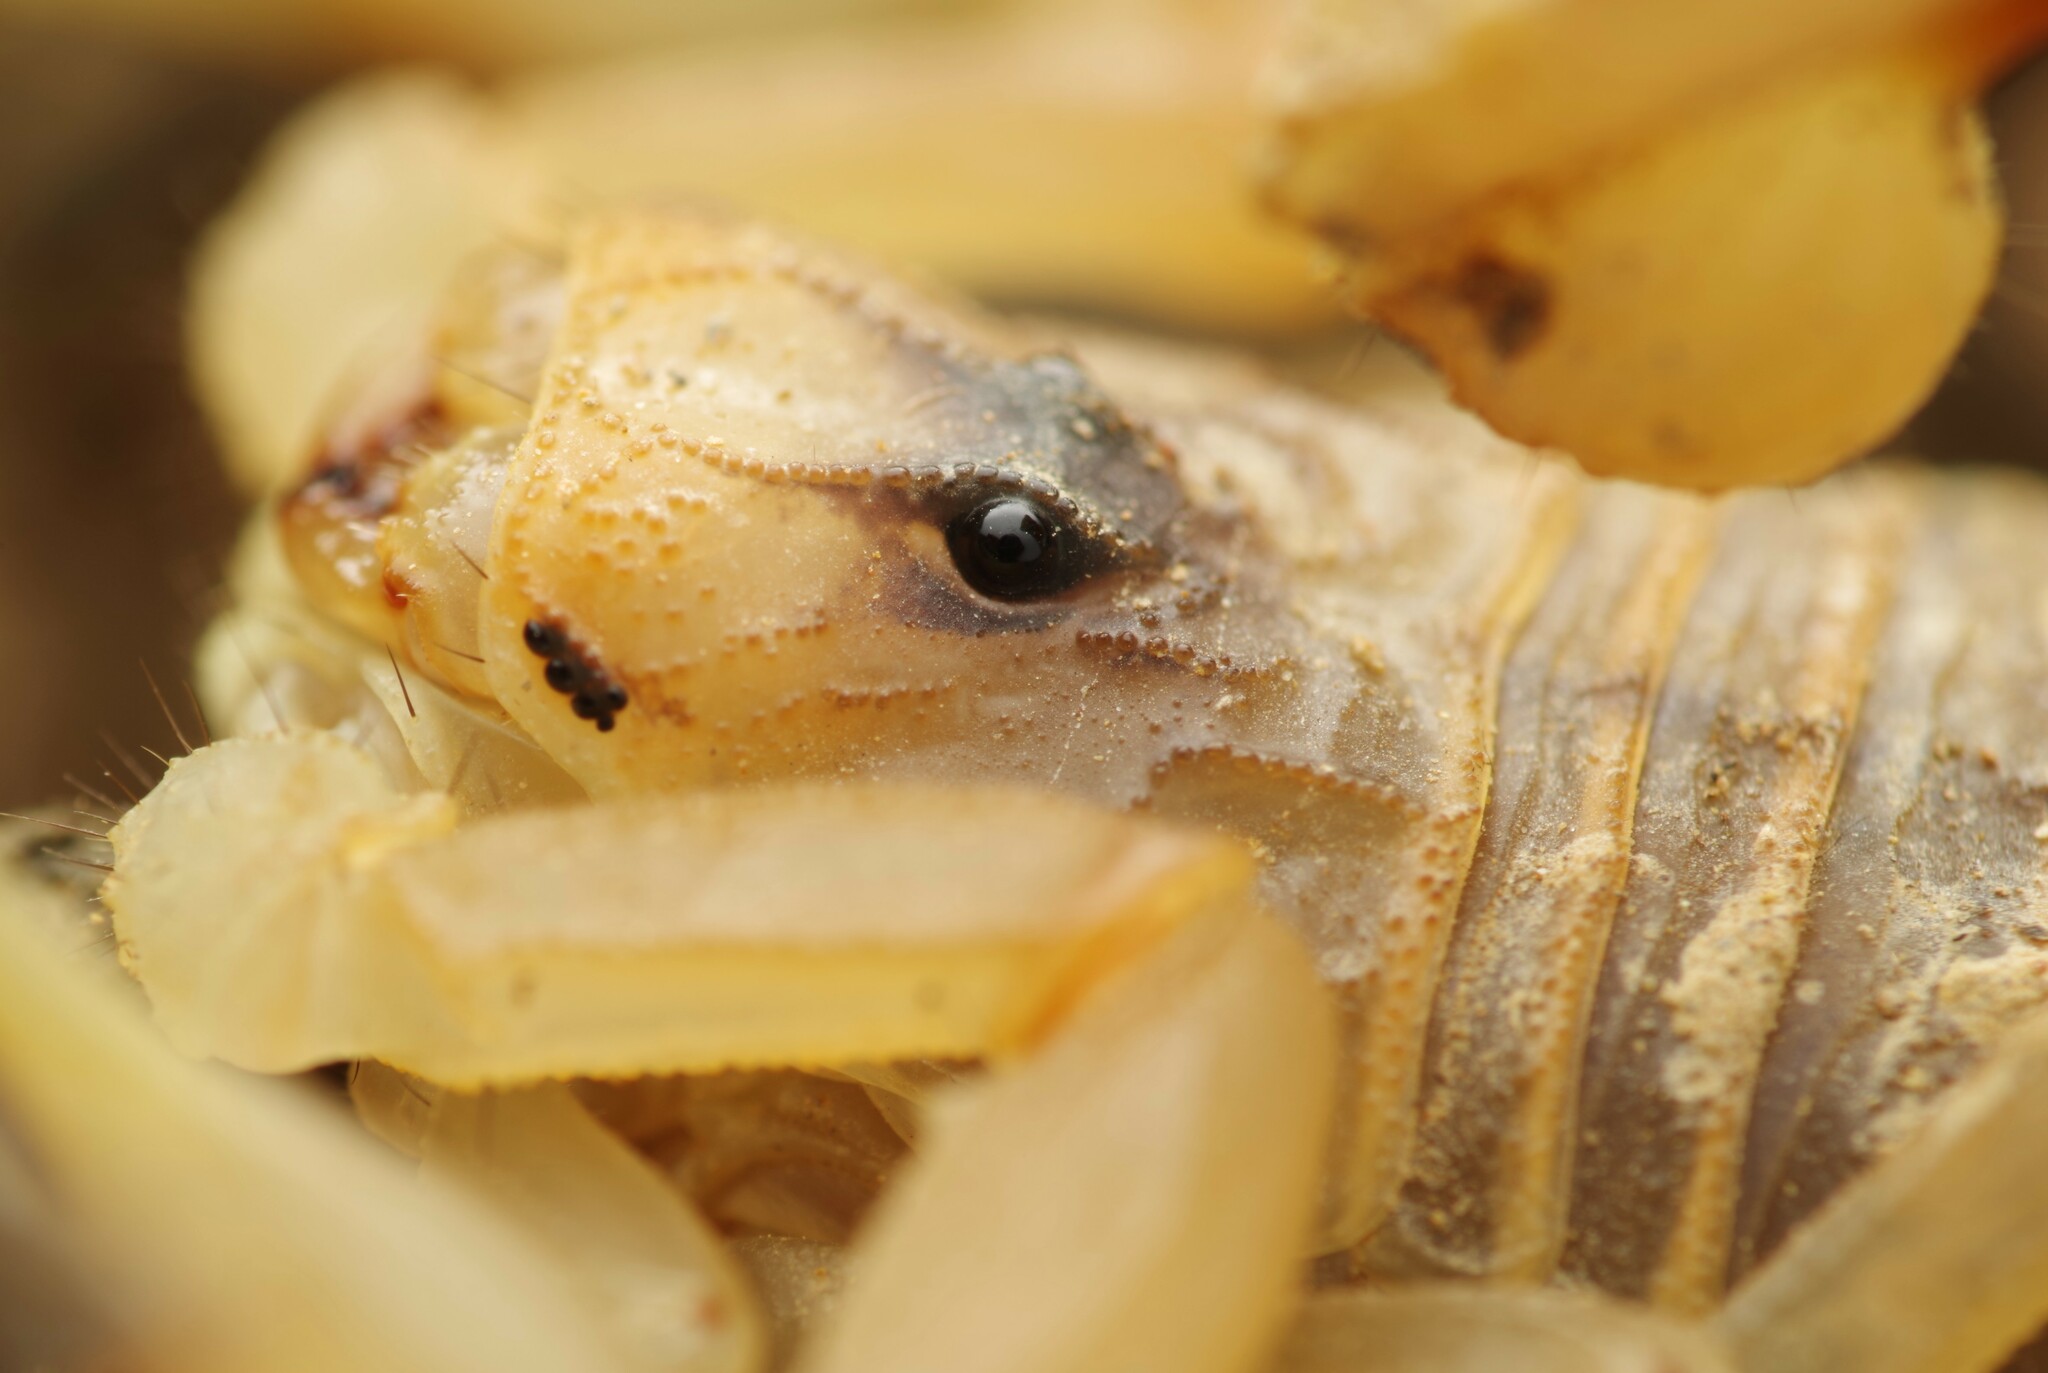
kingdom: Animalia
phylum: Arthropoda
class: Arachnida
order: Scorpiones
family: Buthidae
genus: Buthus
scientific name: Buthus pyrenaeus
